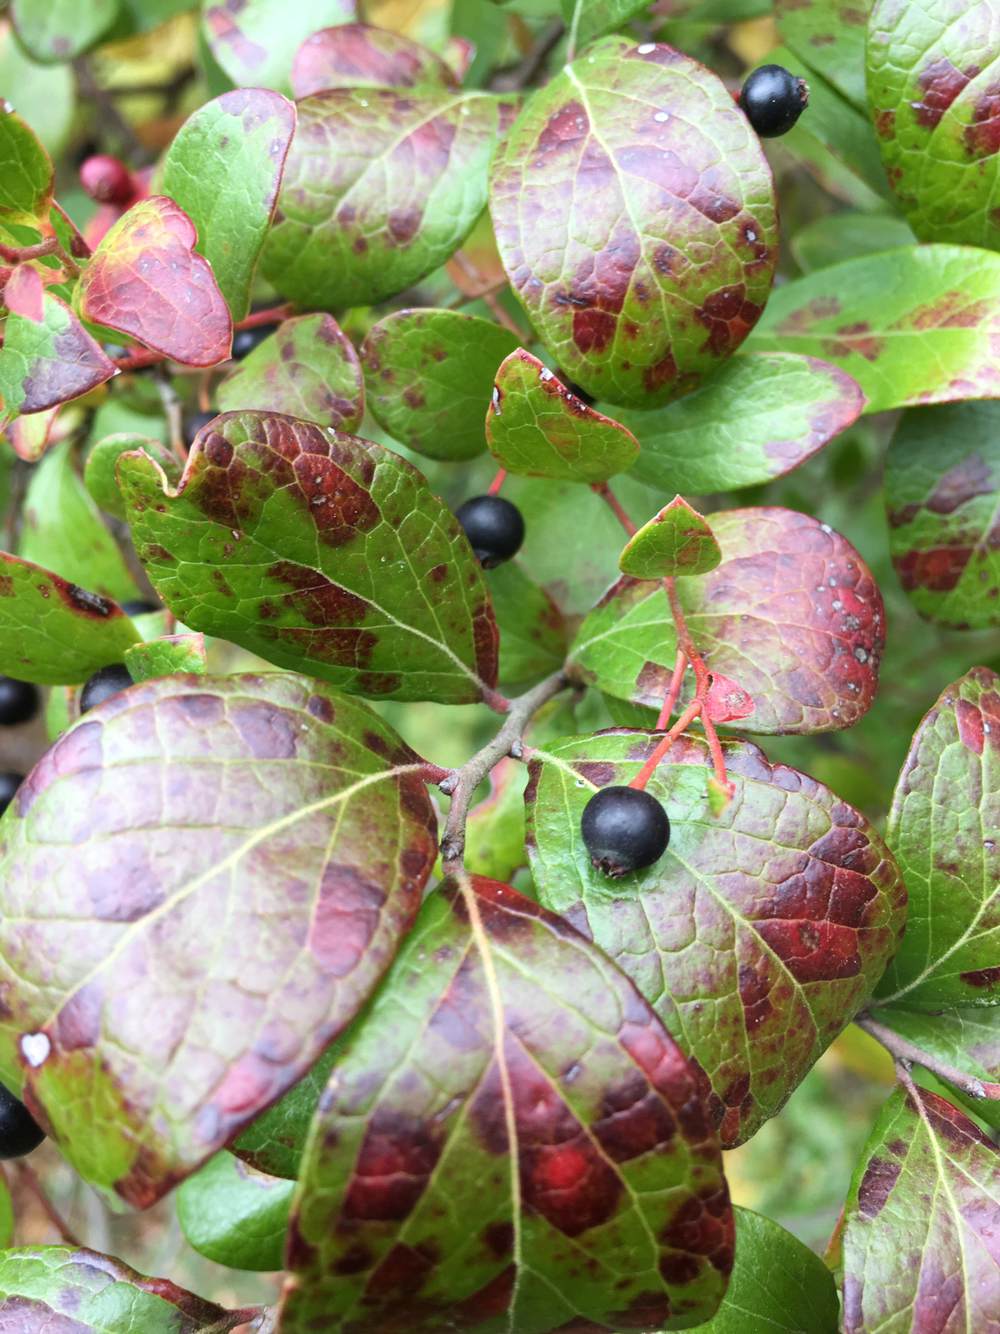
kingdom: Plantae
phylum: Tracheophyta
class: Magnoliopsida
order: Ericales
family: Ericaceae
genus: Vaccinium
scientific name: Vaccinium arboreum
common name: Farkleberry
